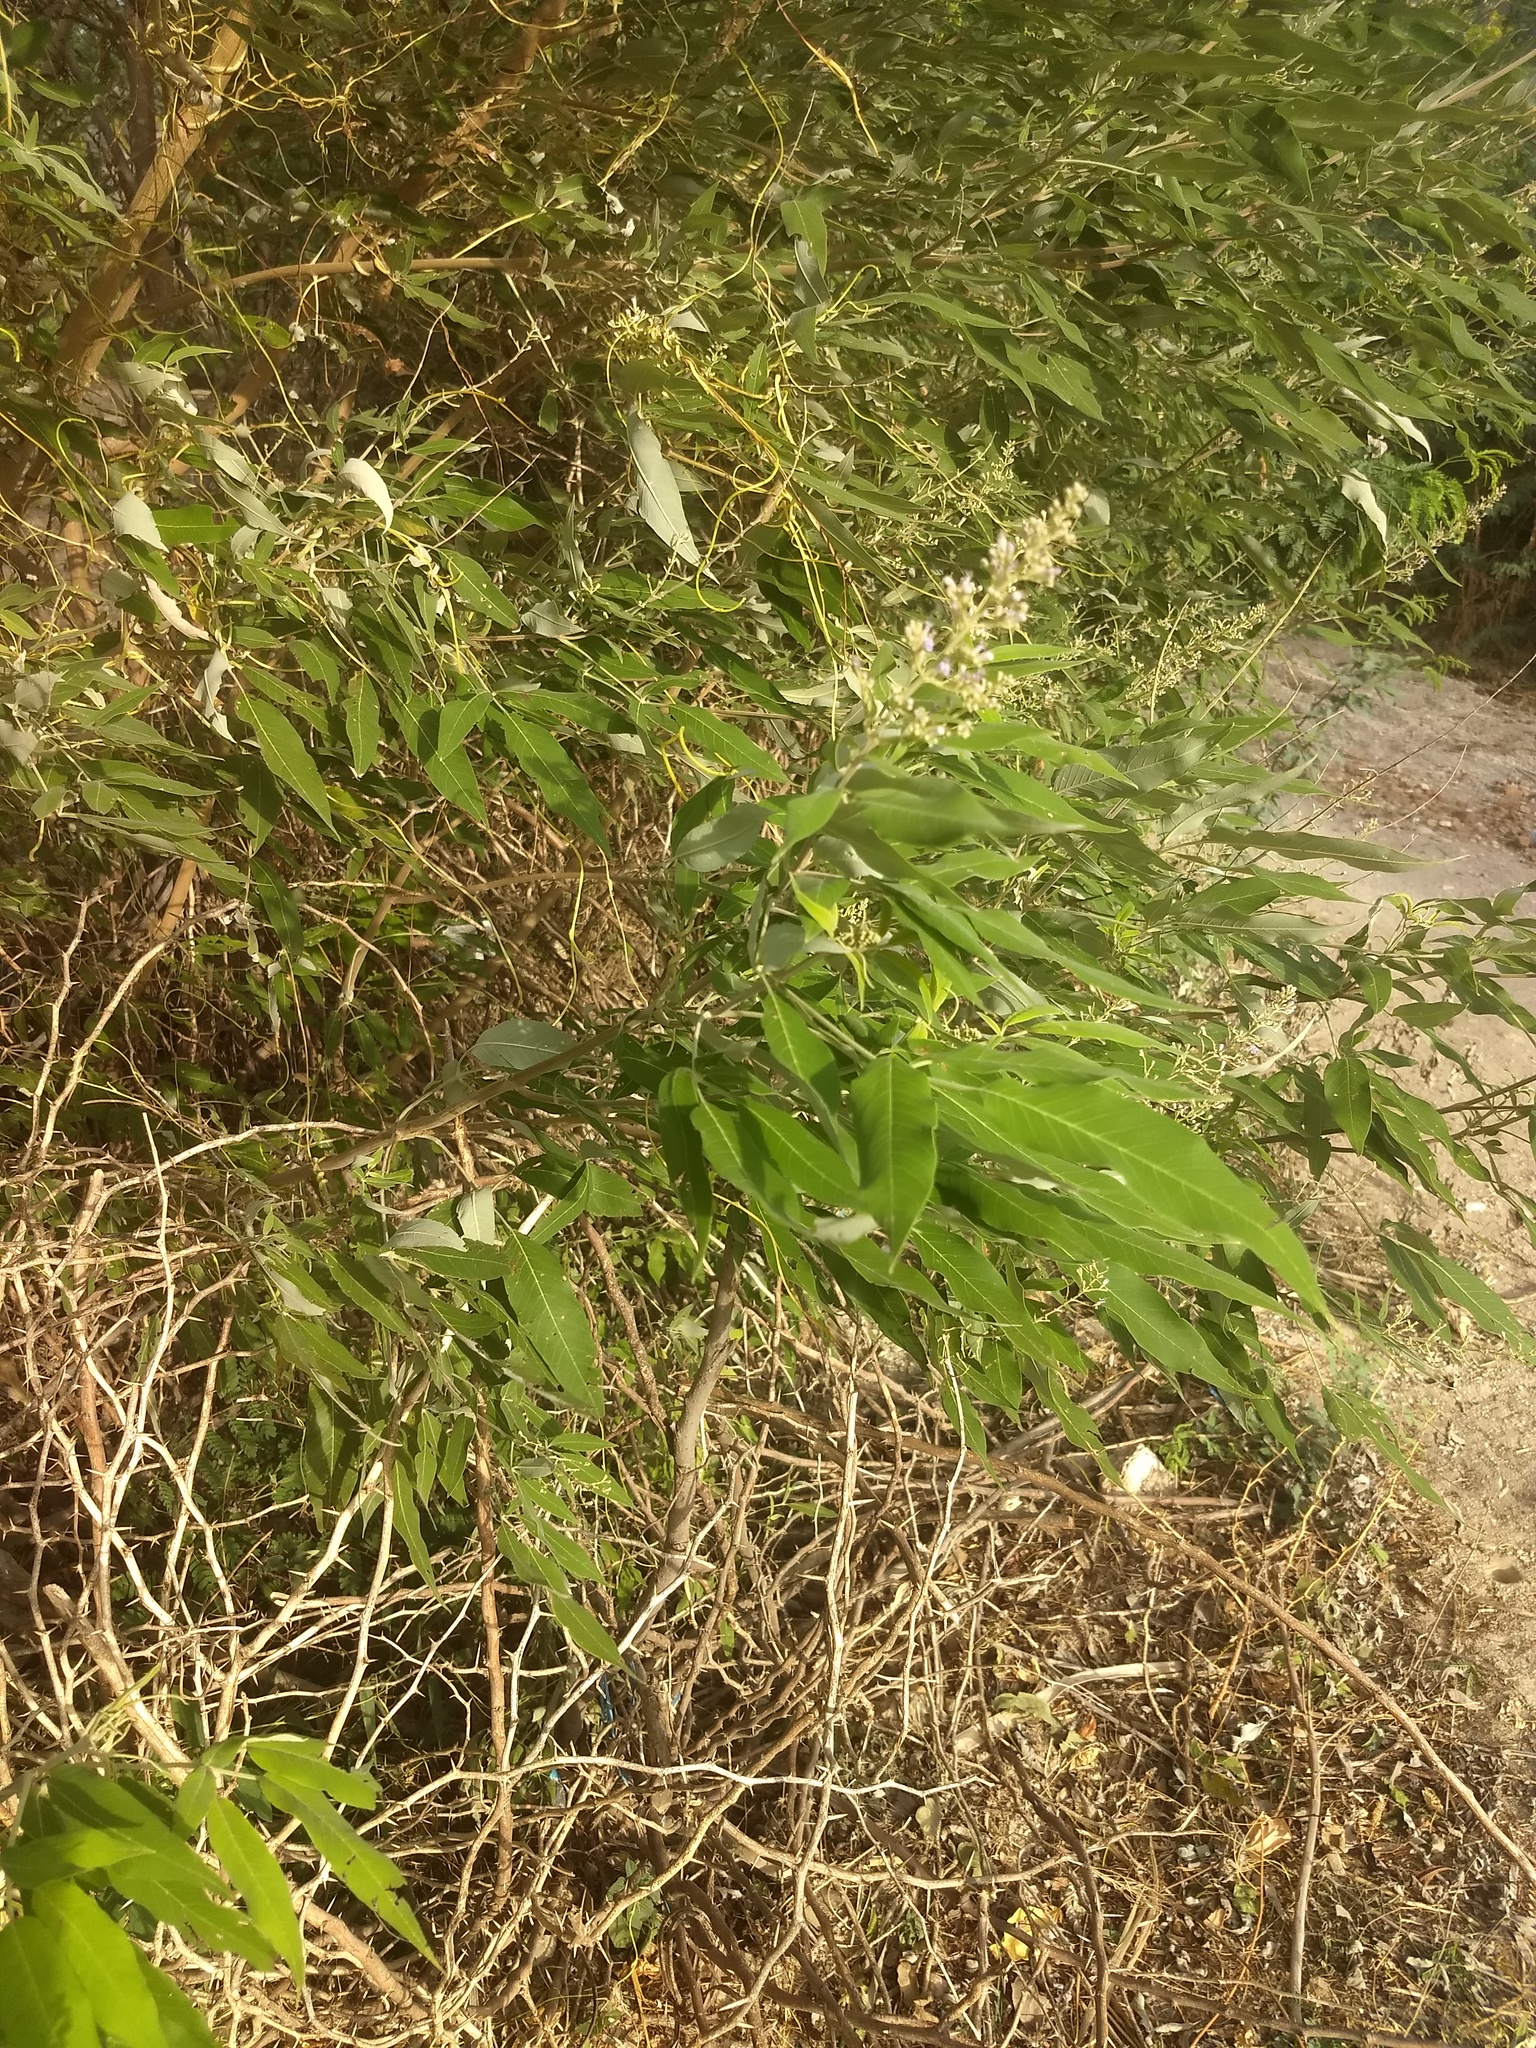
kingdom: Plantae
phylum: Tracheophyta
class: Magnoliopsida
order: Lamiales
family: Lamiaceae
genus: Vitex
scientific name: Vitex negundo
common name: Chinese chastetree
